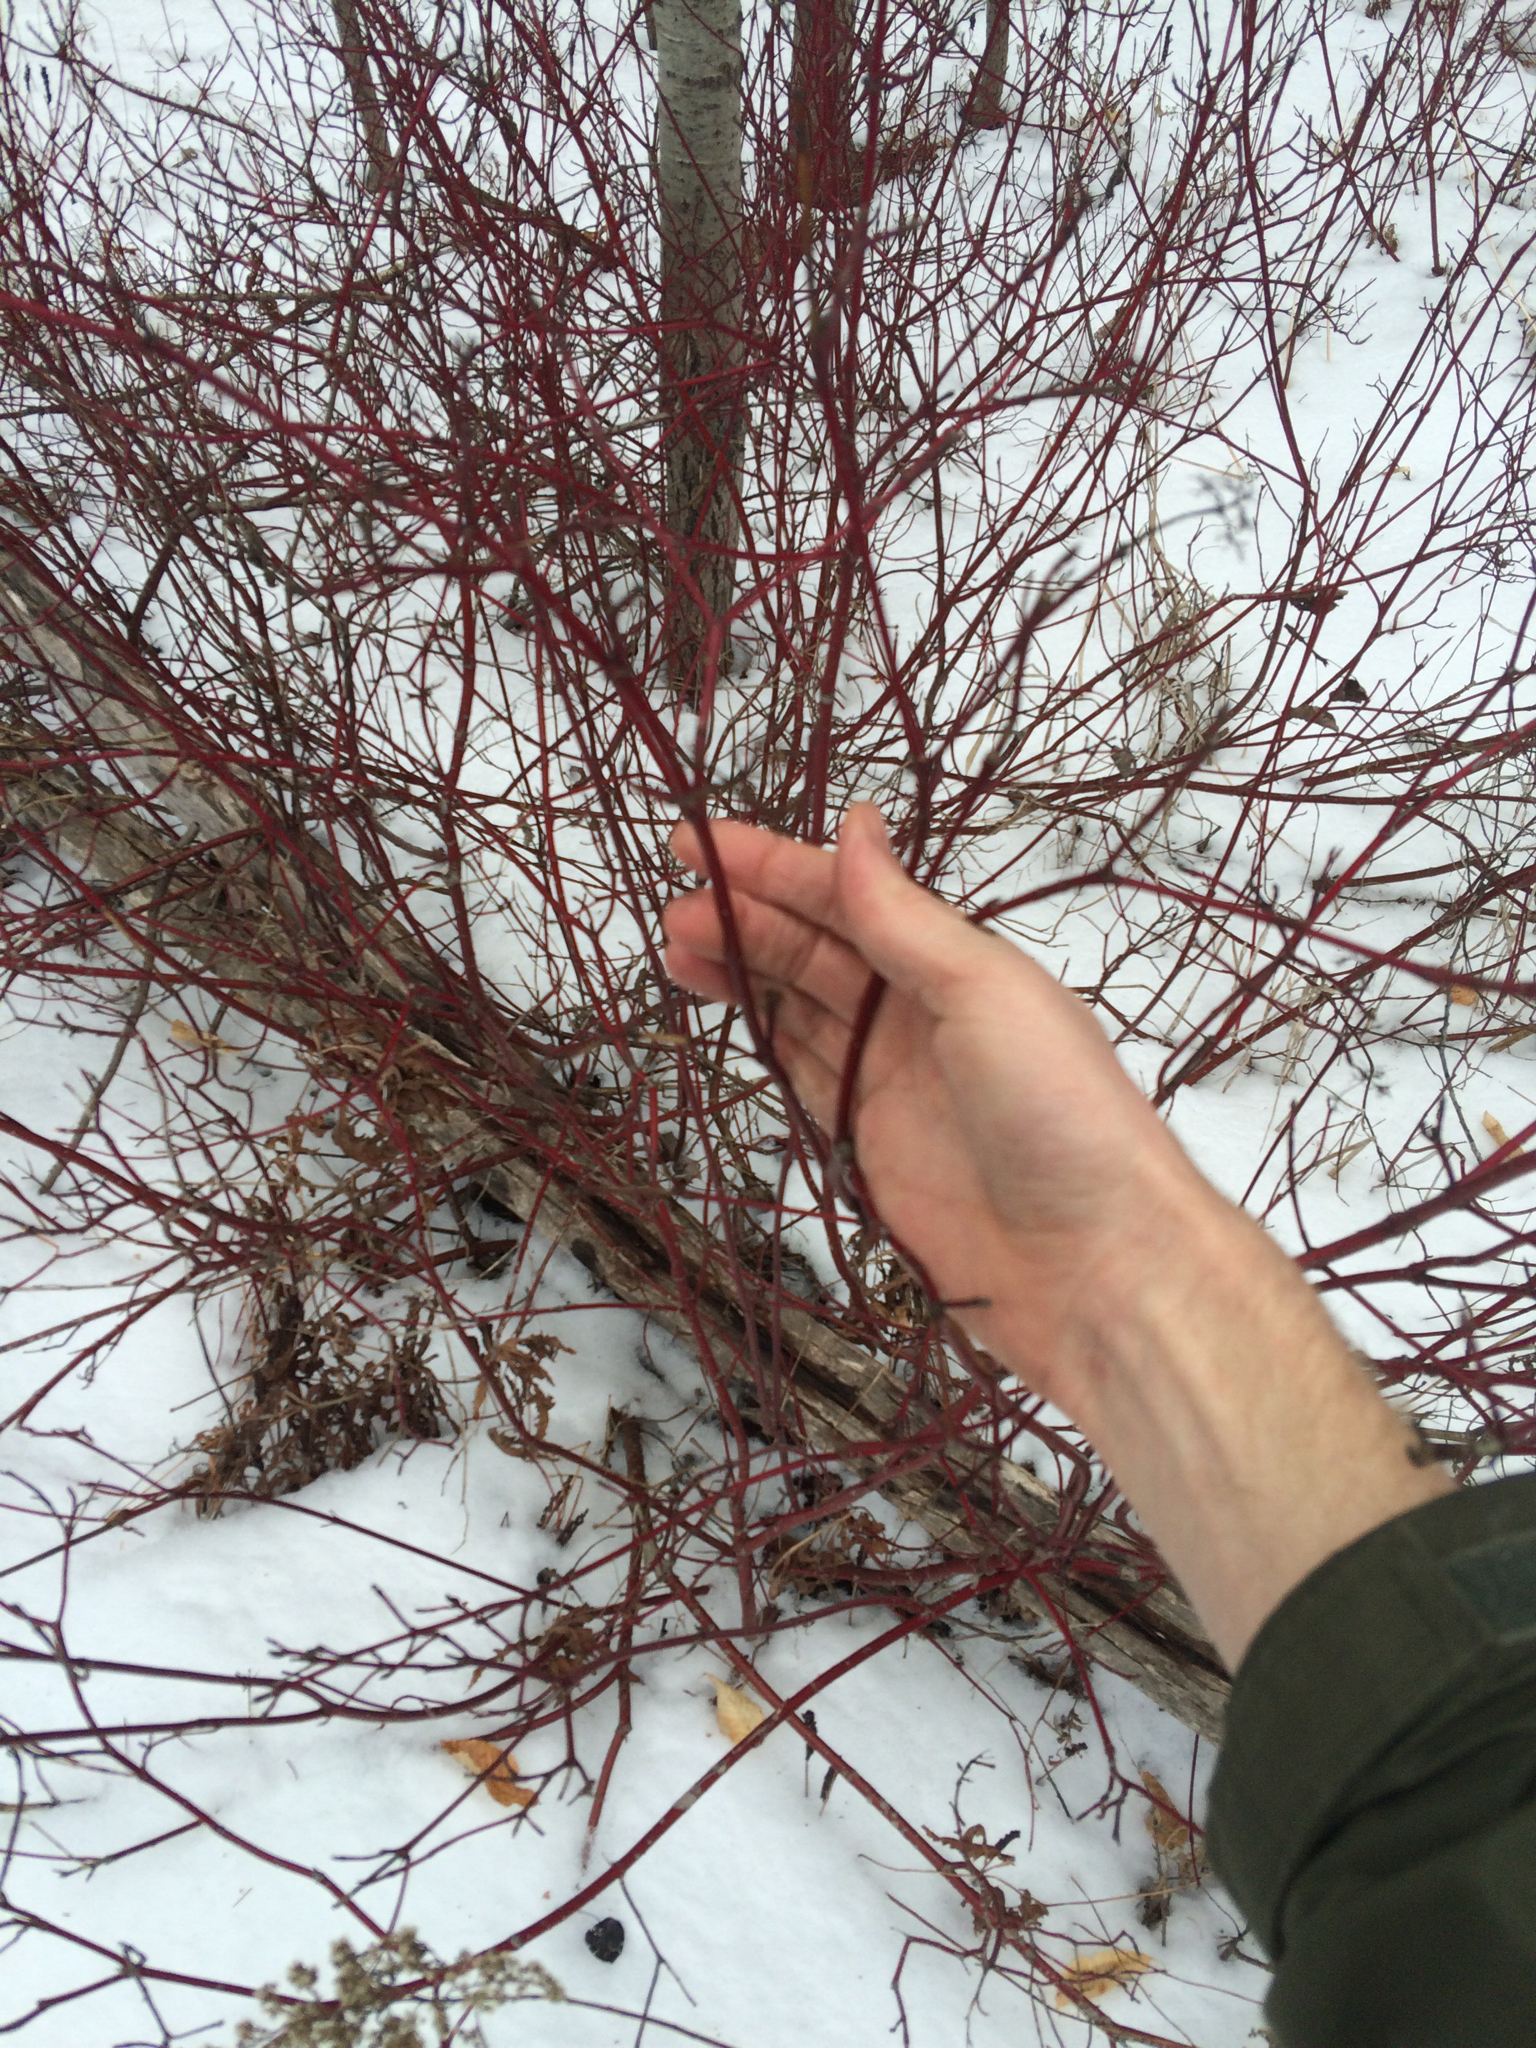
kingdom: Plantae
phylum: Tracheophyta
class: Magnoliopsida
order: Cornales
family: Cornaceae
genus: Cornus
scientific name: Cornus sericea
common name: Red-osier dogwood
